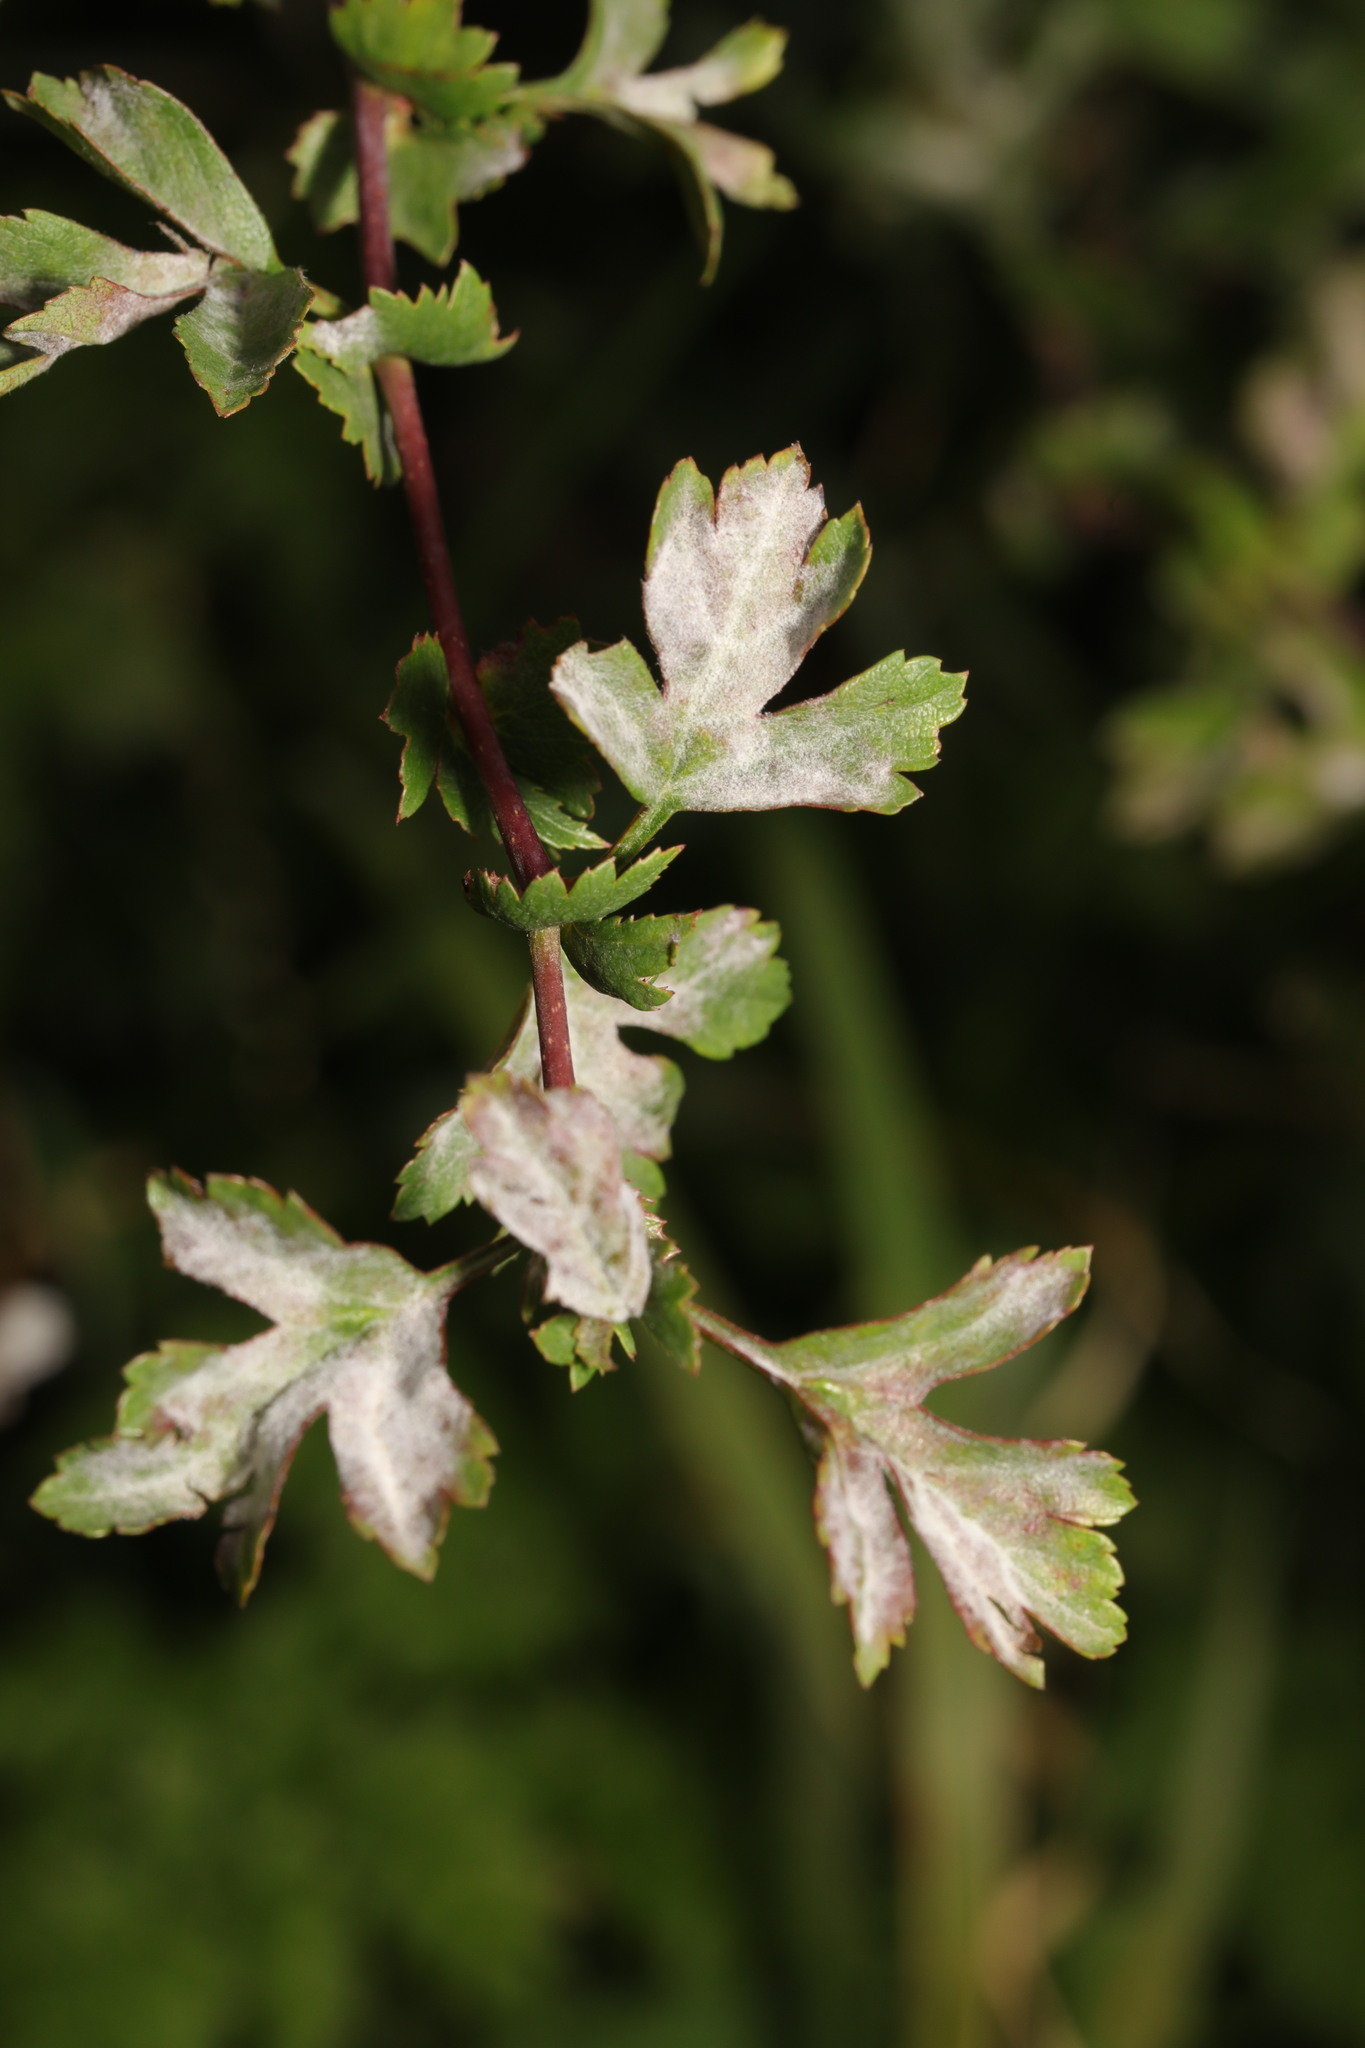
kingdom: Plantae
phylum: Tracheophyta
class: Magnoliopsida
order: Rosales
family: Rosaceae
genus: Crataegus
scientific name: Crataegus monogyna
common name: Hawthorn
